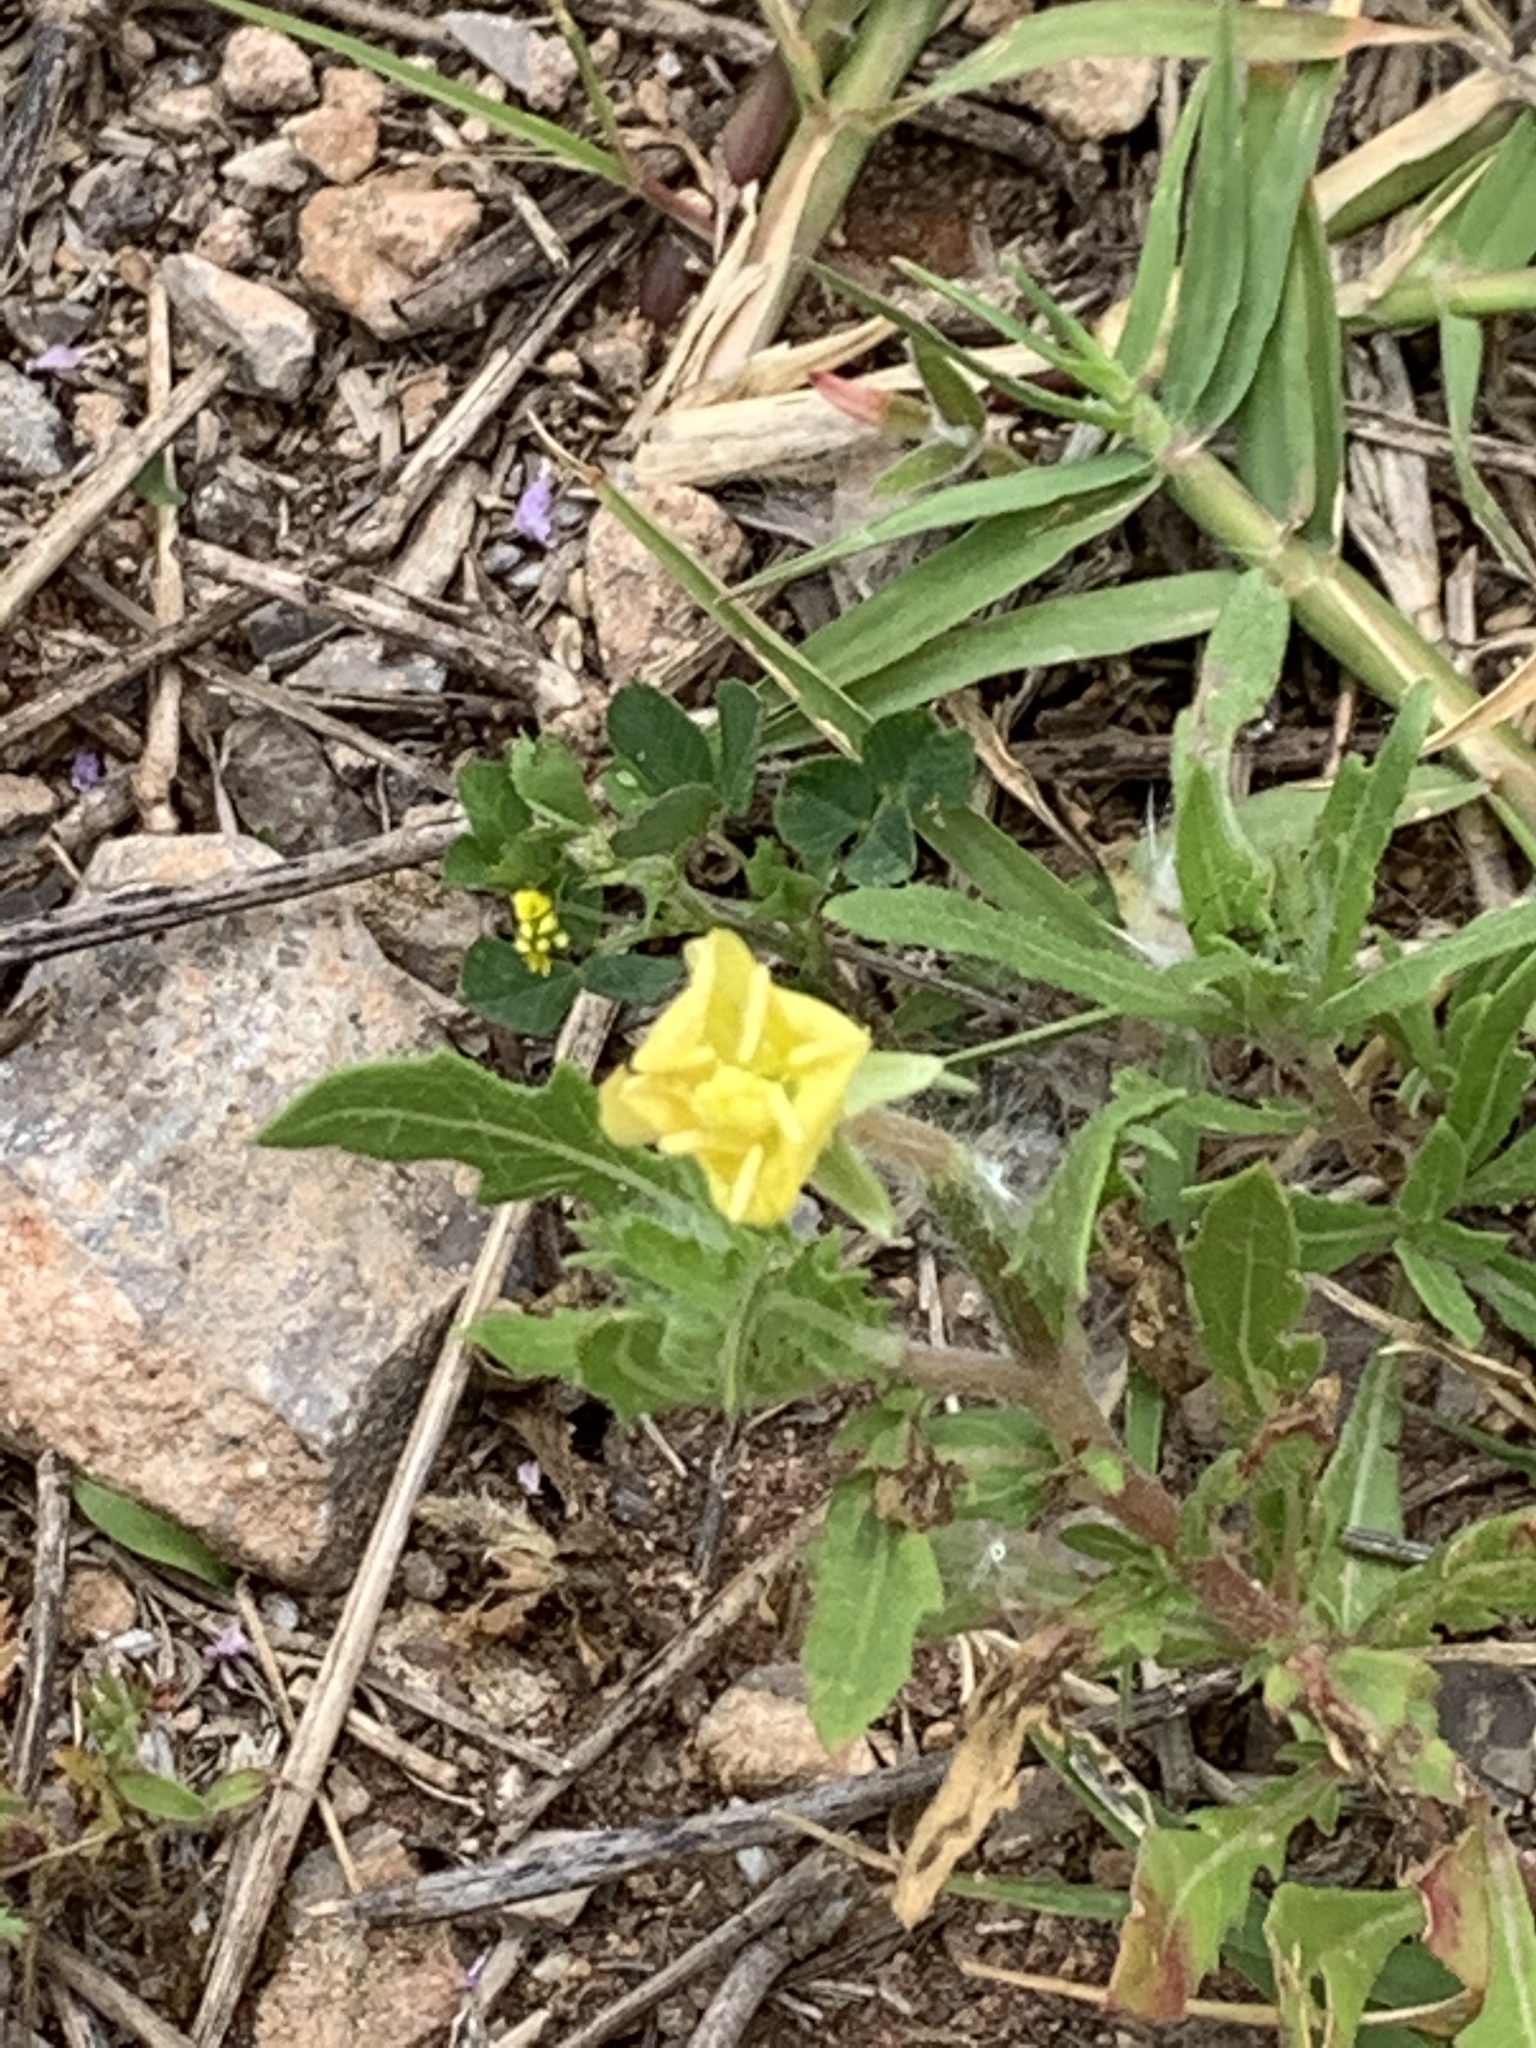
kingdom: Plantae
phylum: Tracheophyta
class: Magnoliopsida
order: Myrtales
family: Onagraceae
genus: Oenothera
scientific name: Oenothera laciniata
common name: Cut-leaved evening-primrose
